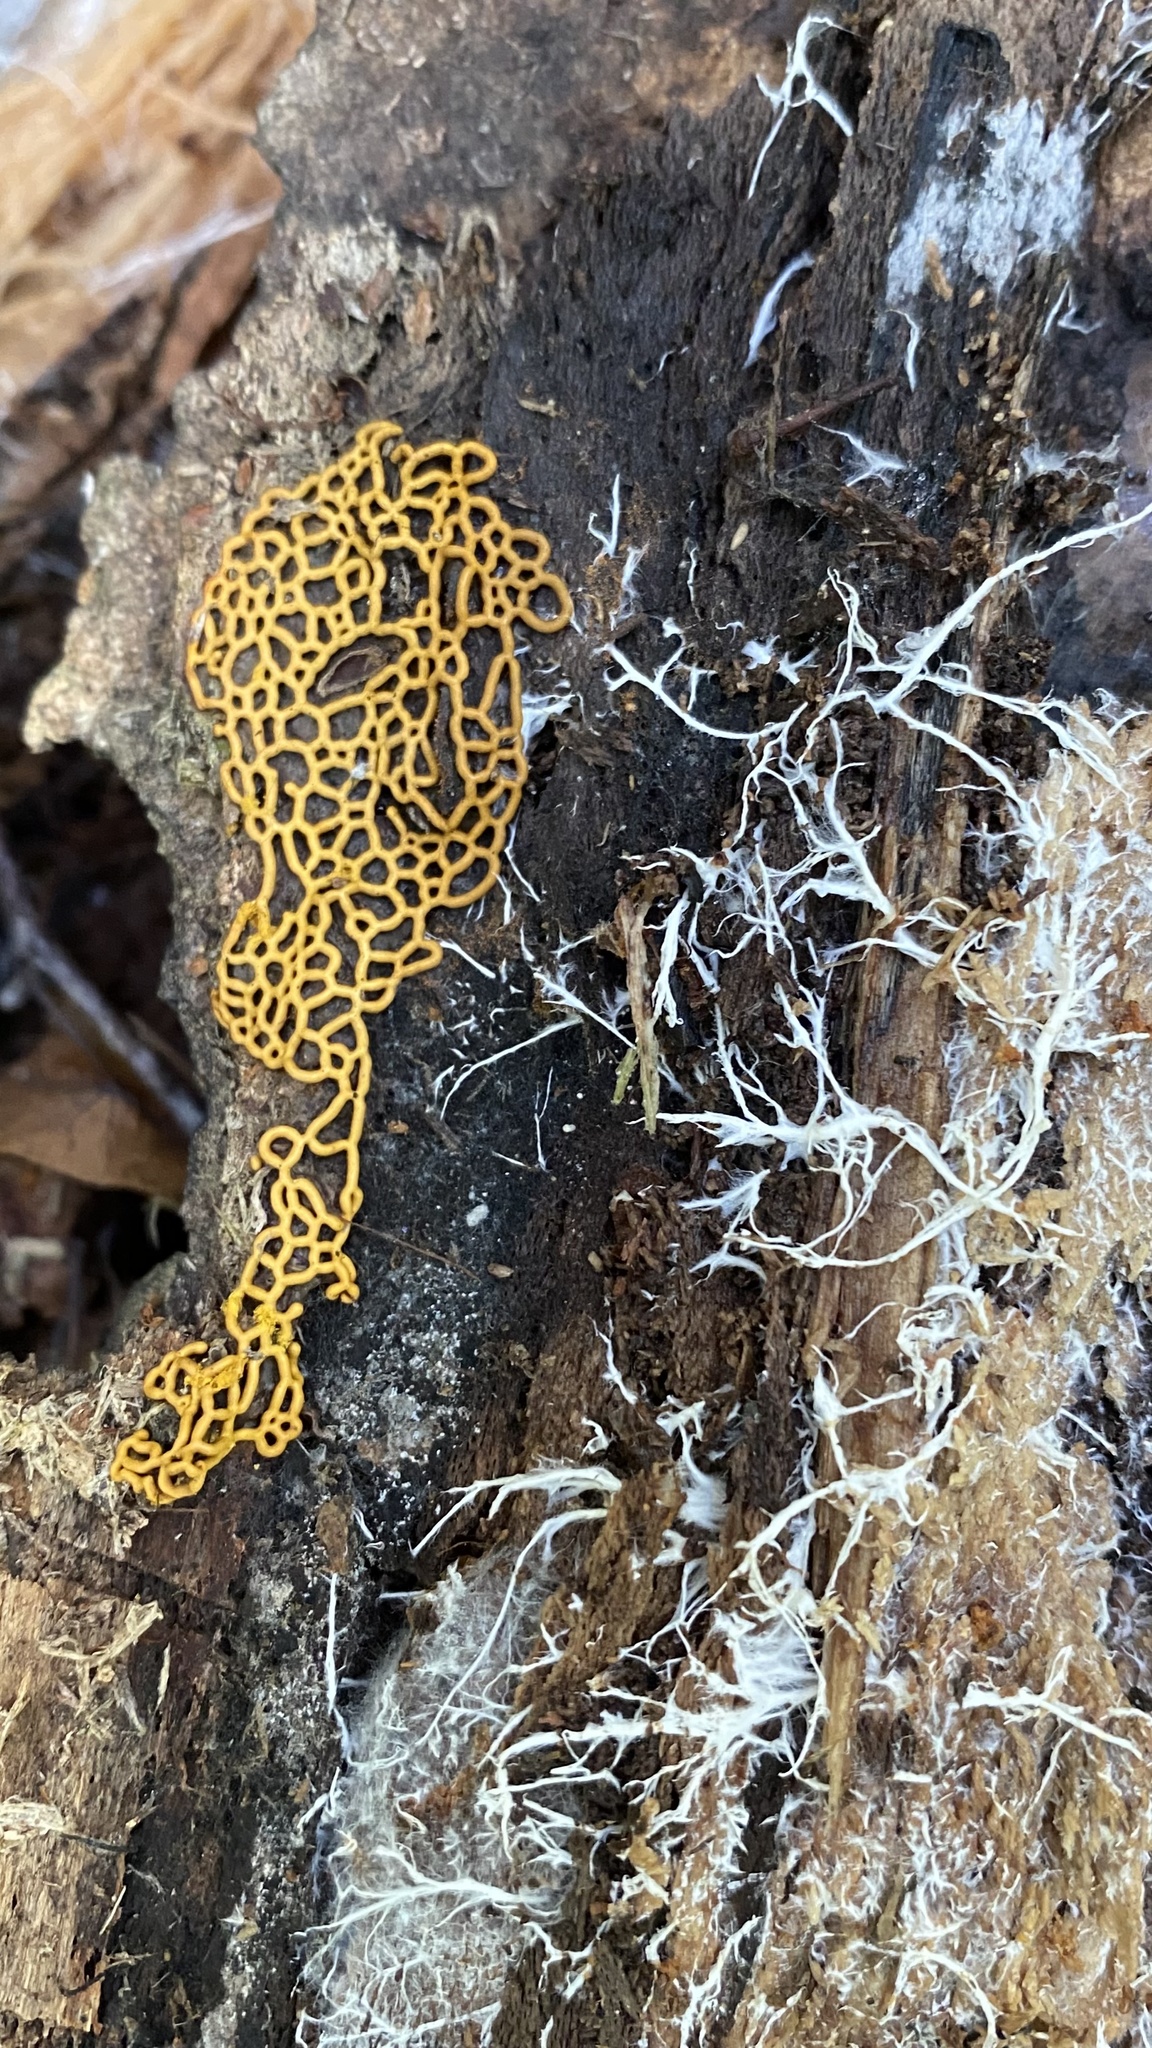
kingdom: Protozoa
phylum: Mycetozoa
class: Myxomycetes
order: Trichiales
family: Arcyriaceae
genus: Hemitrichia
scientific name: Hemitrichia serpula
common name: Pretzel slime mold
